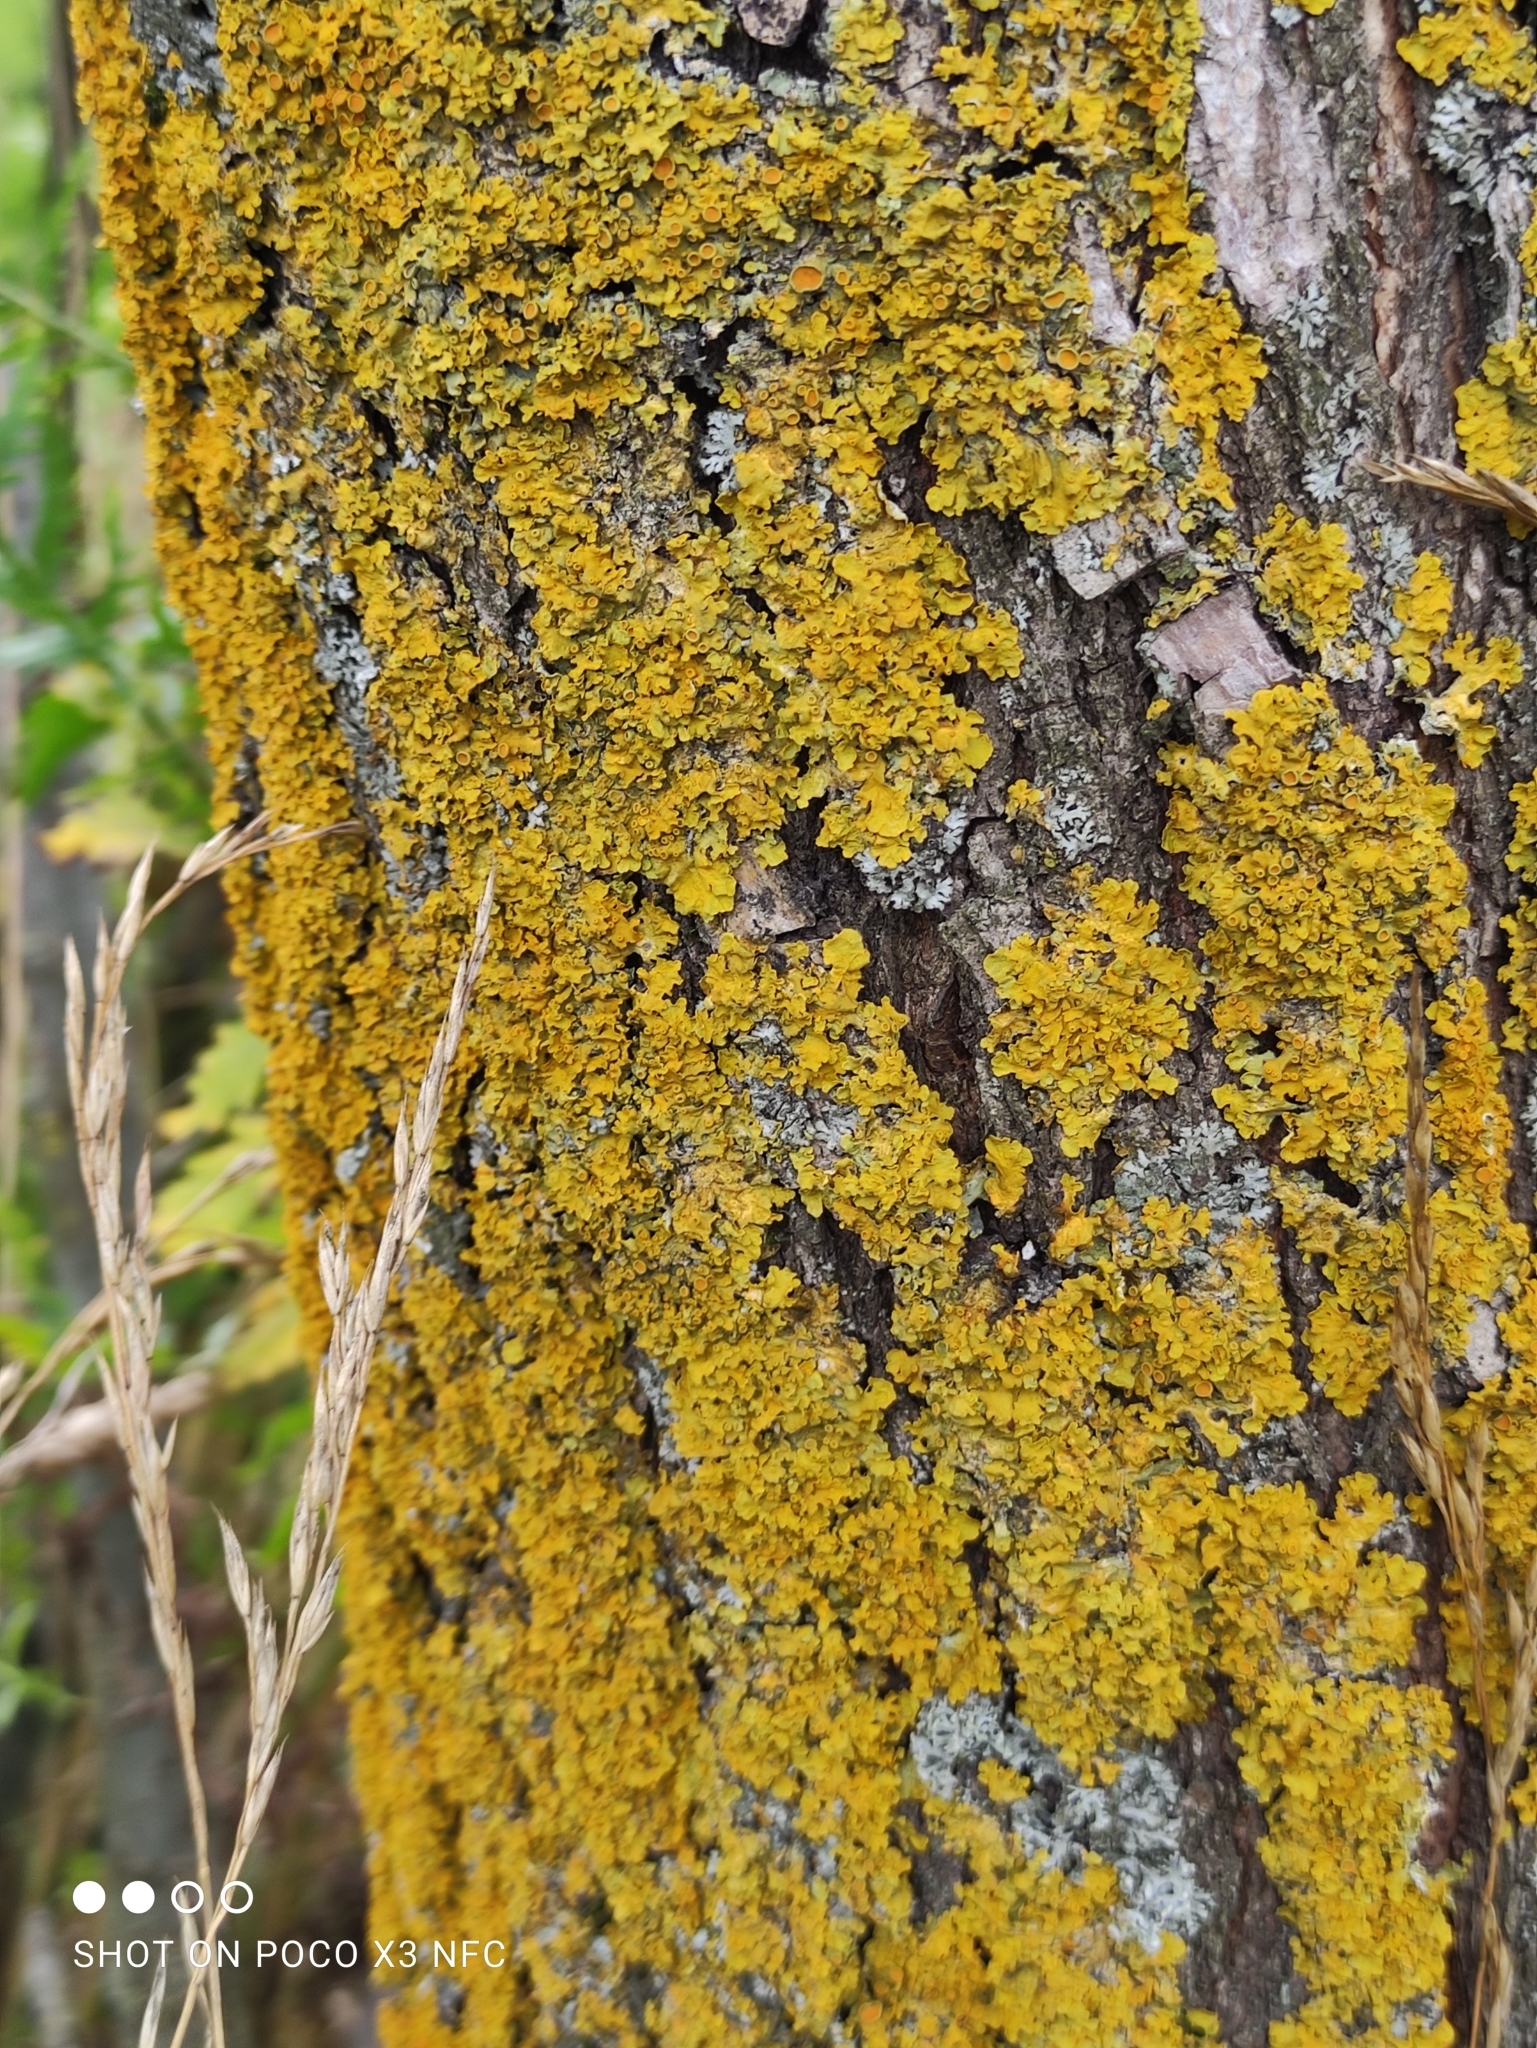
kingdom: Fungi
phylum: Ascomycota
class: Lecanoromycetes
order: Teloschistales
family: Teloschistaceae
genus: Xanthoria
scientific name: Xanthoria parietina
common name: Common orange lichen
